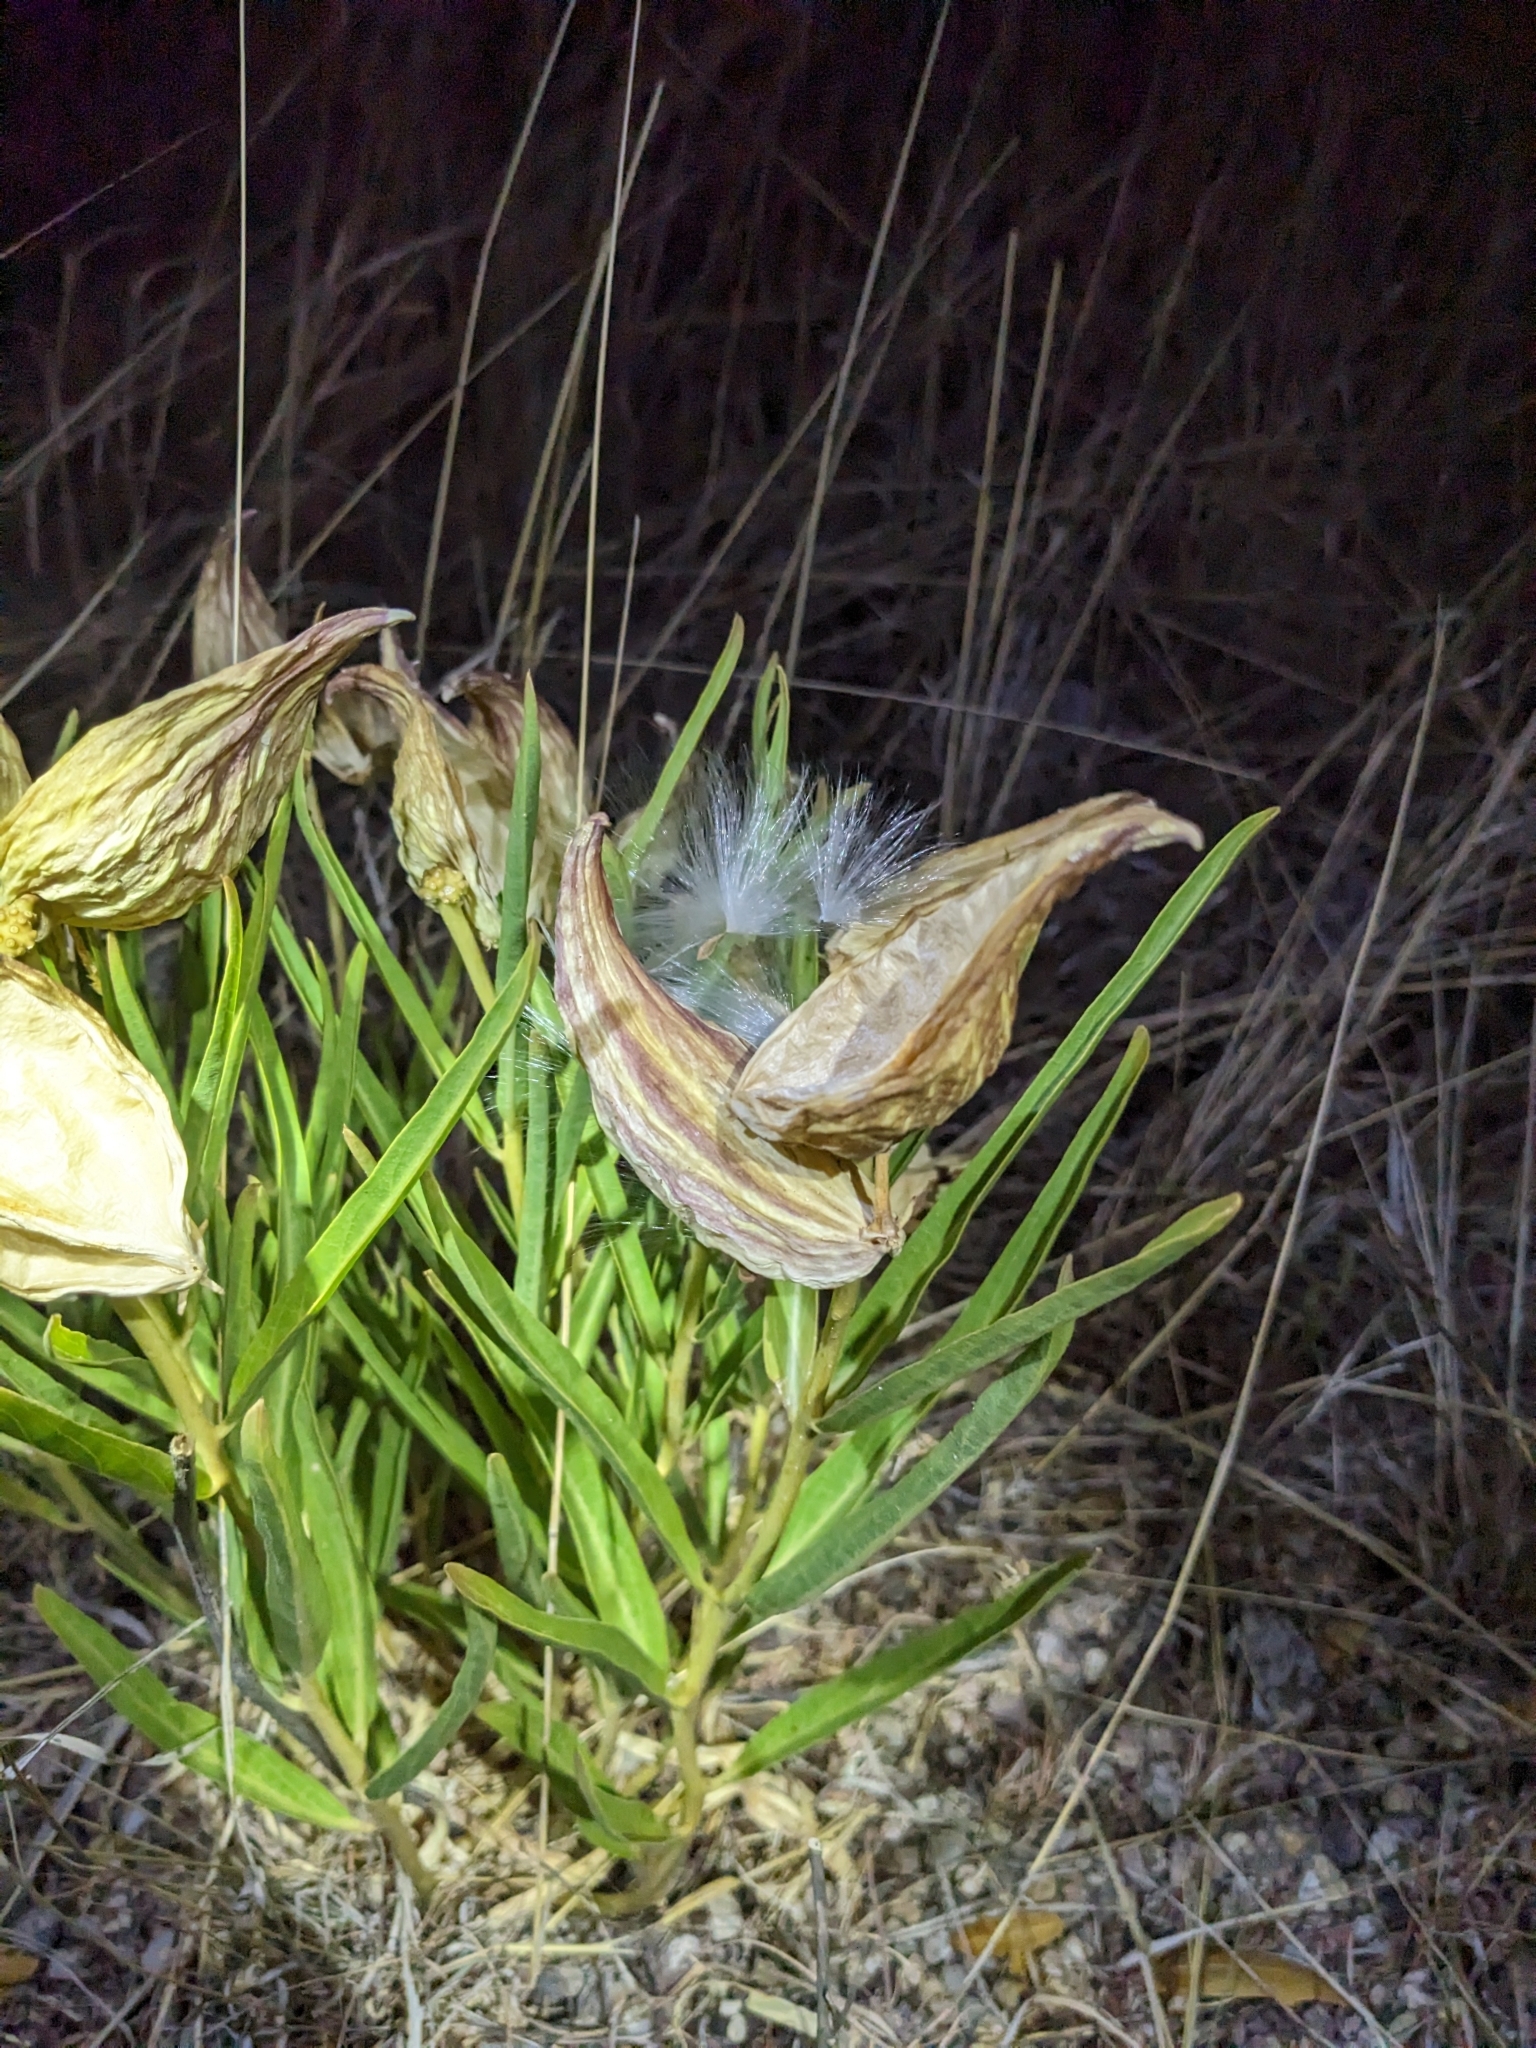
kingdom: Plantae
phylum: Tracheophyta
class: Magnoliopsida
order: Gentianales
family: Apocynaceae
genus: Asclepias
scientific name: Asclepias asperula
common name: Antelope horns
